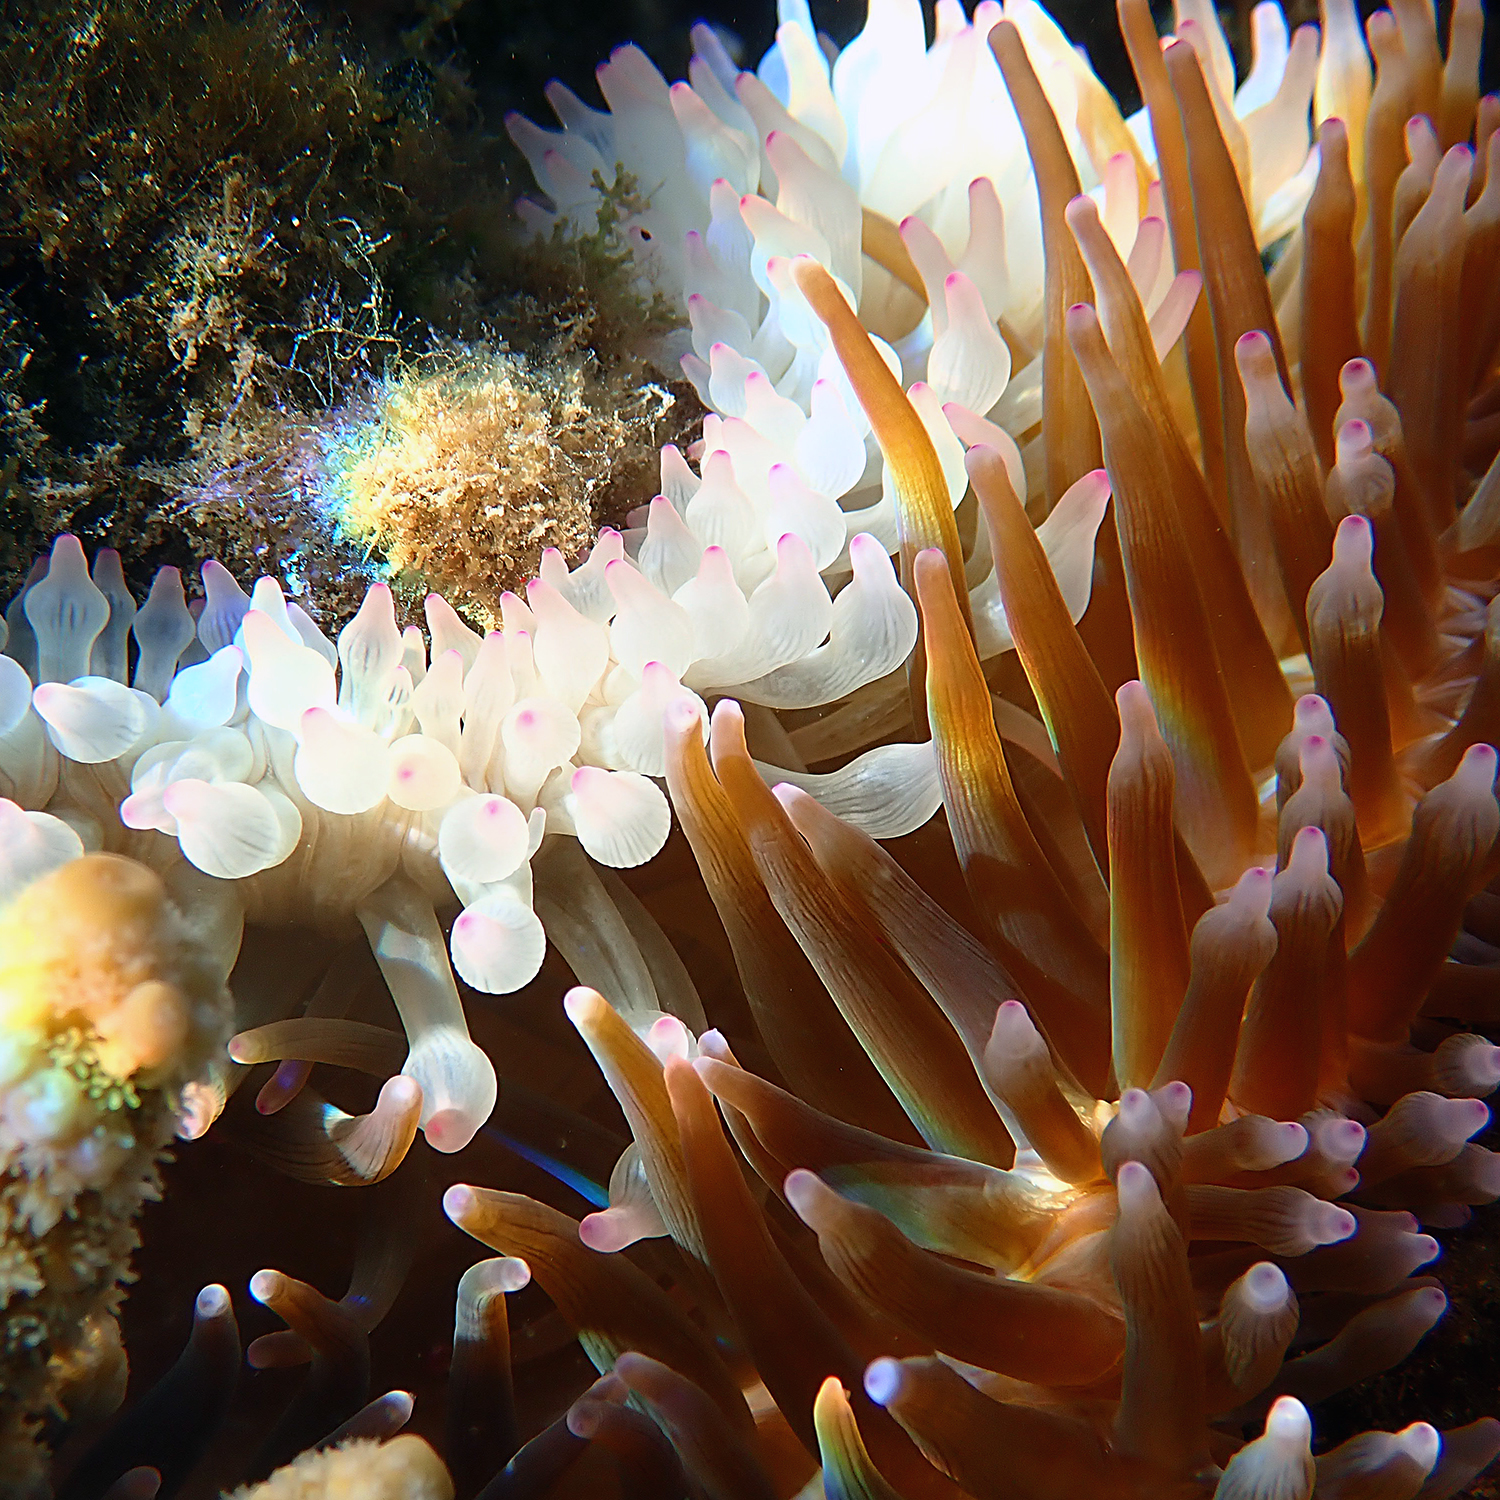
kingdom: Animalia
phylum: Cnidaria
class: Anthozoa
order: Actiniaria
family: Actiniidae
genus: Entacmaea
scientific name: Entacmaea quadricolor
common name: Bulb tentacle sea anemone
